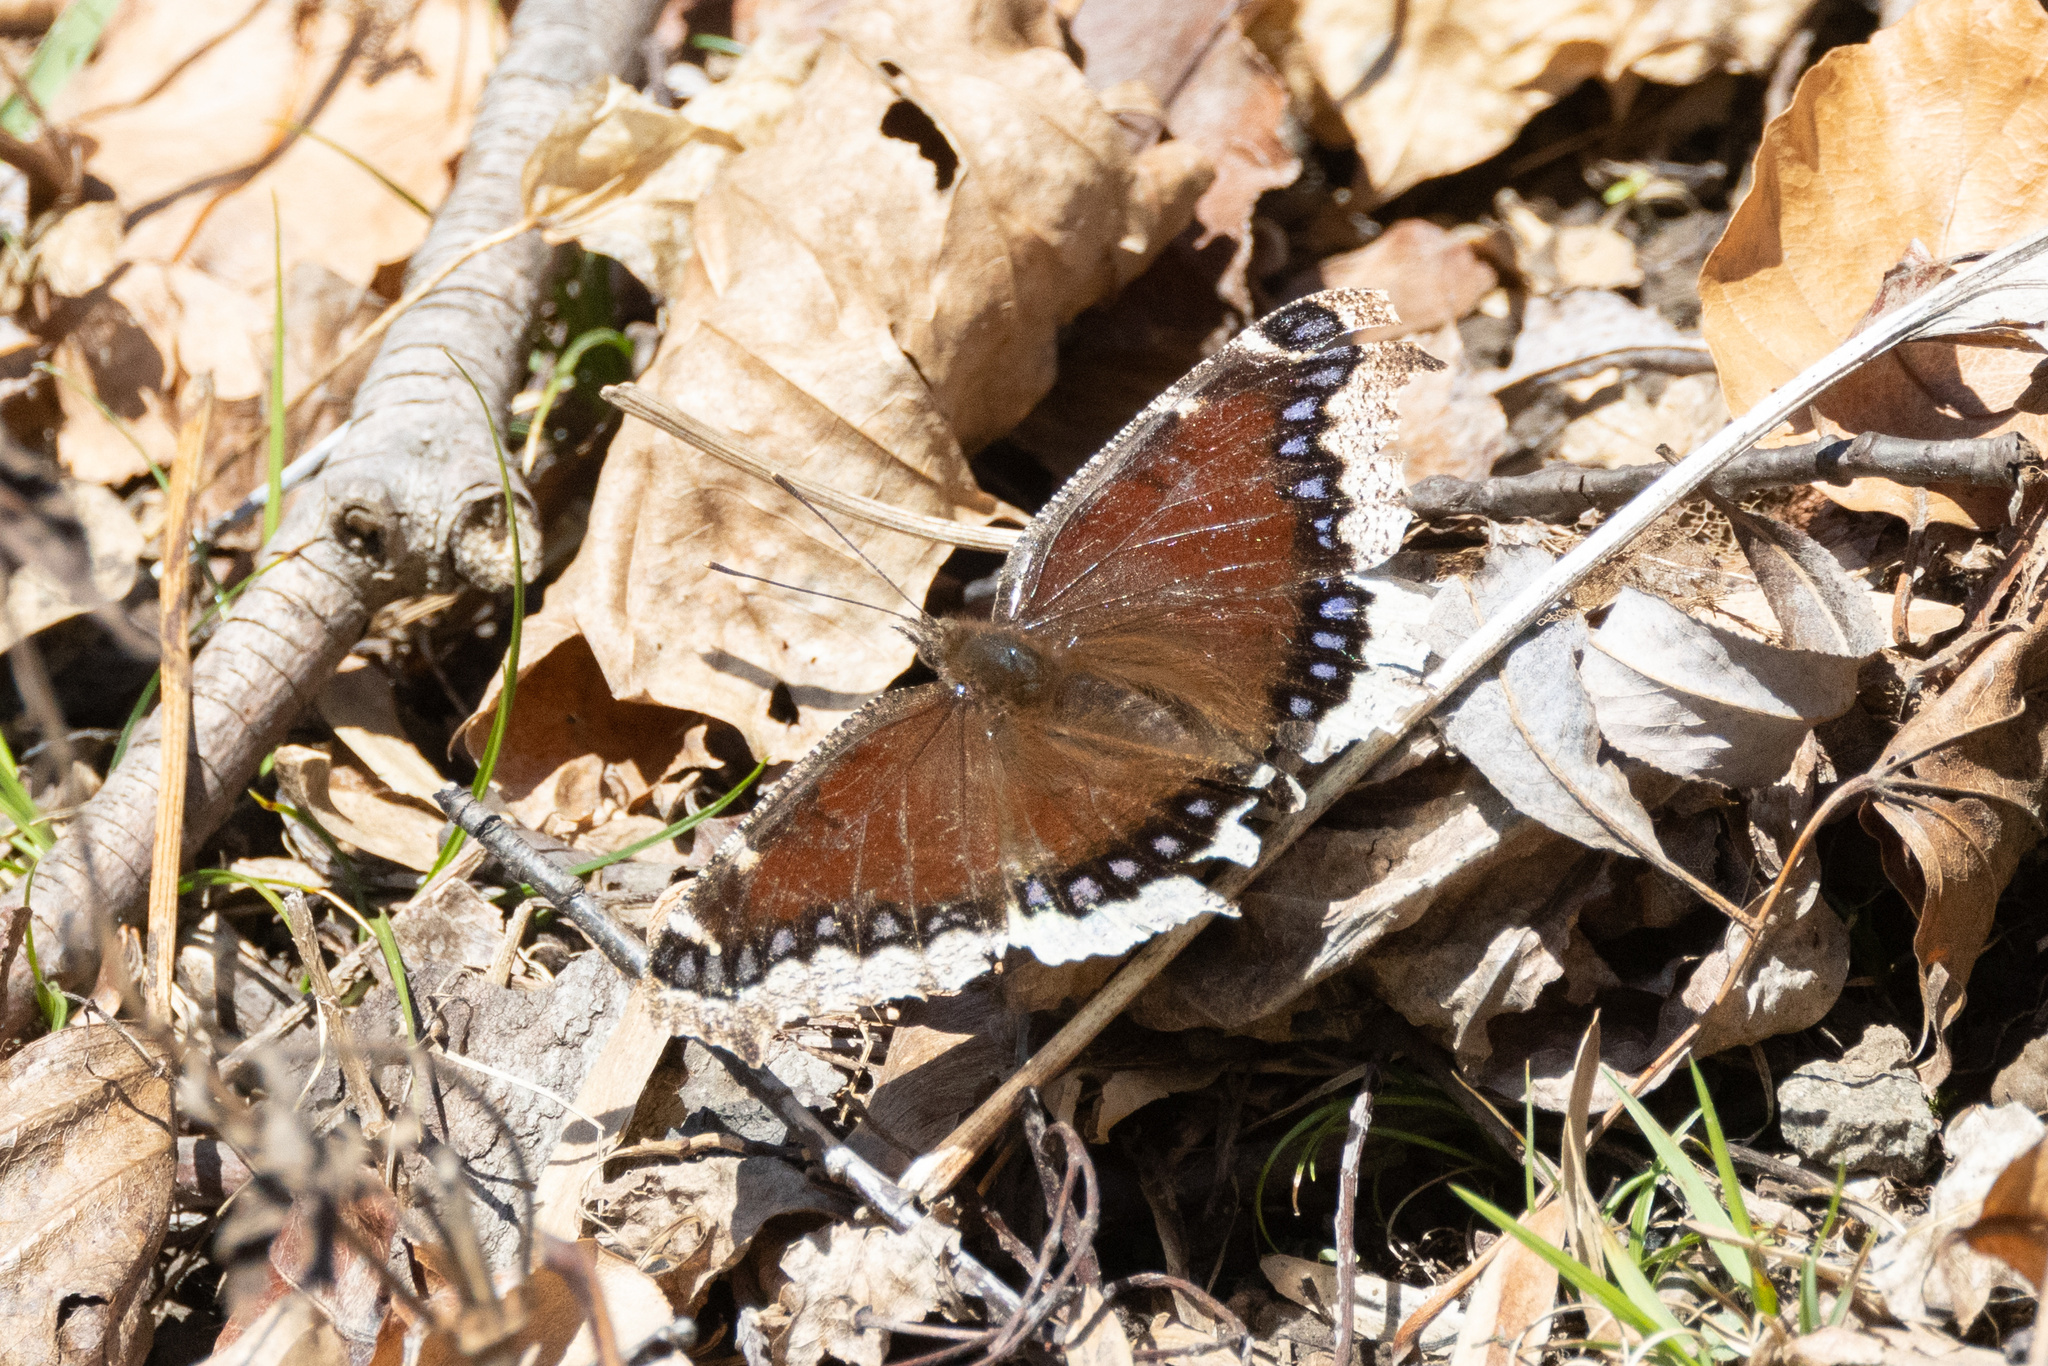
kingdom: Animalia
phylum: Arthropoda
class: Insecta
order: Lepidoptera
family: Nymphalidae
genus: Nymphalis
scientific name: Nymphalis antiopa
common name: Camberwell beauty
